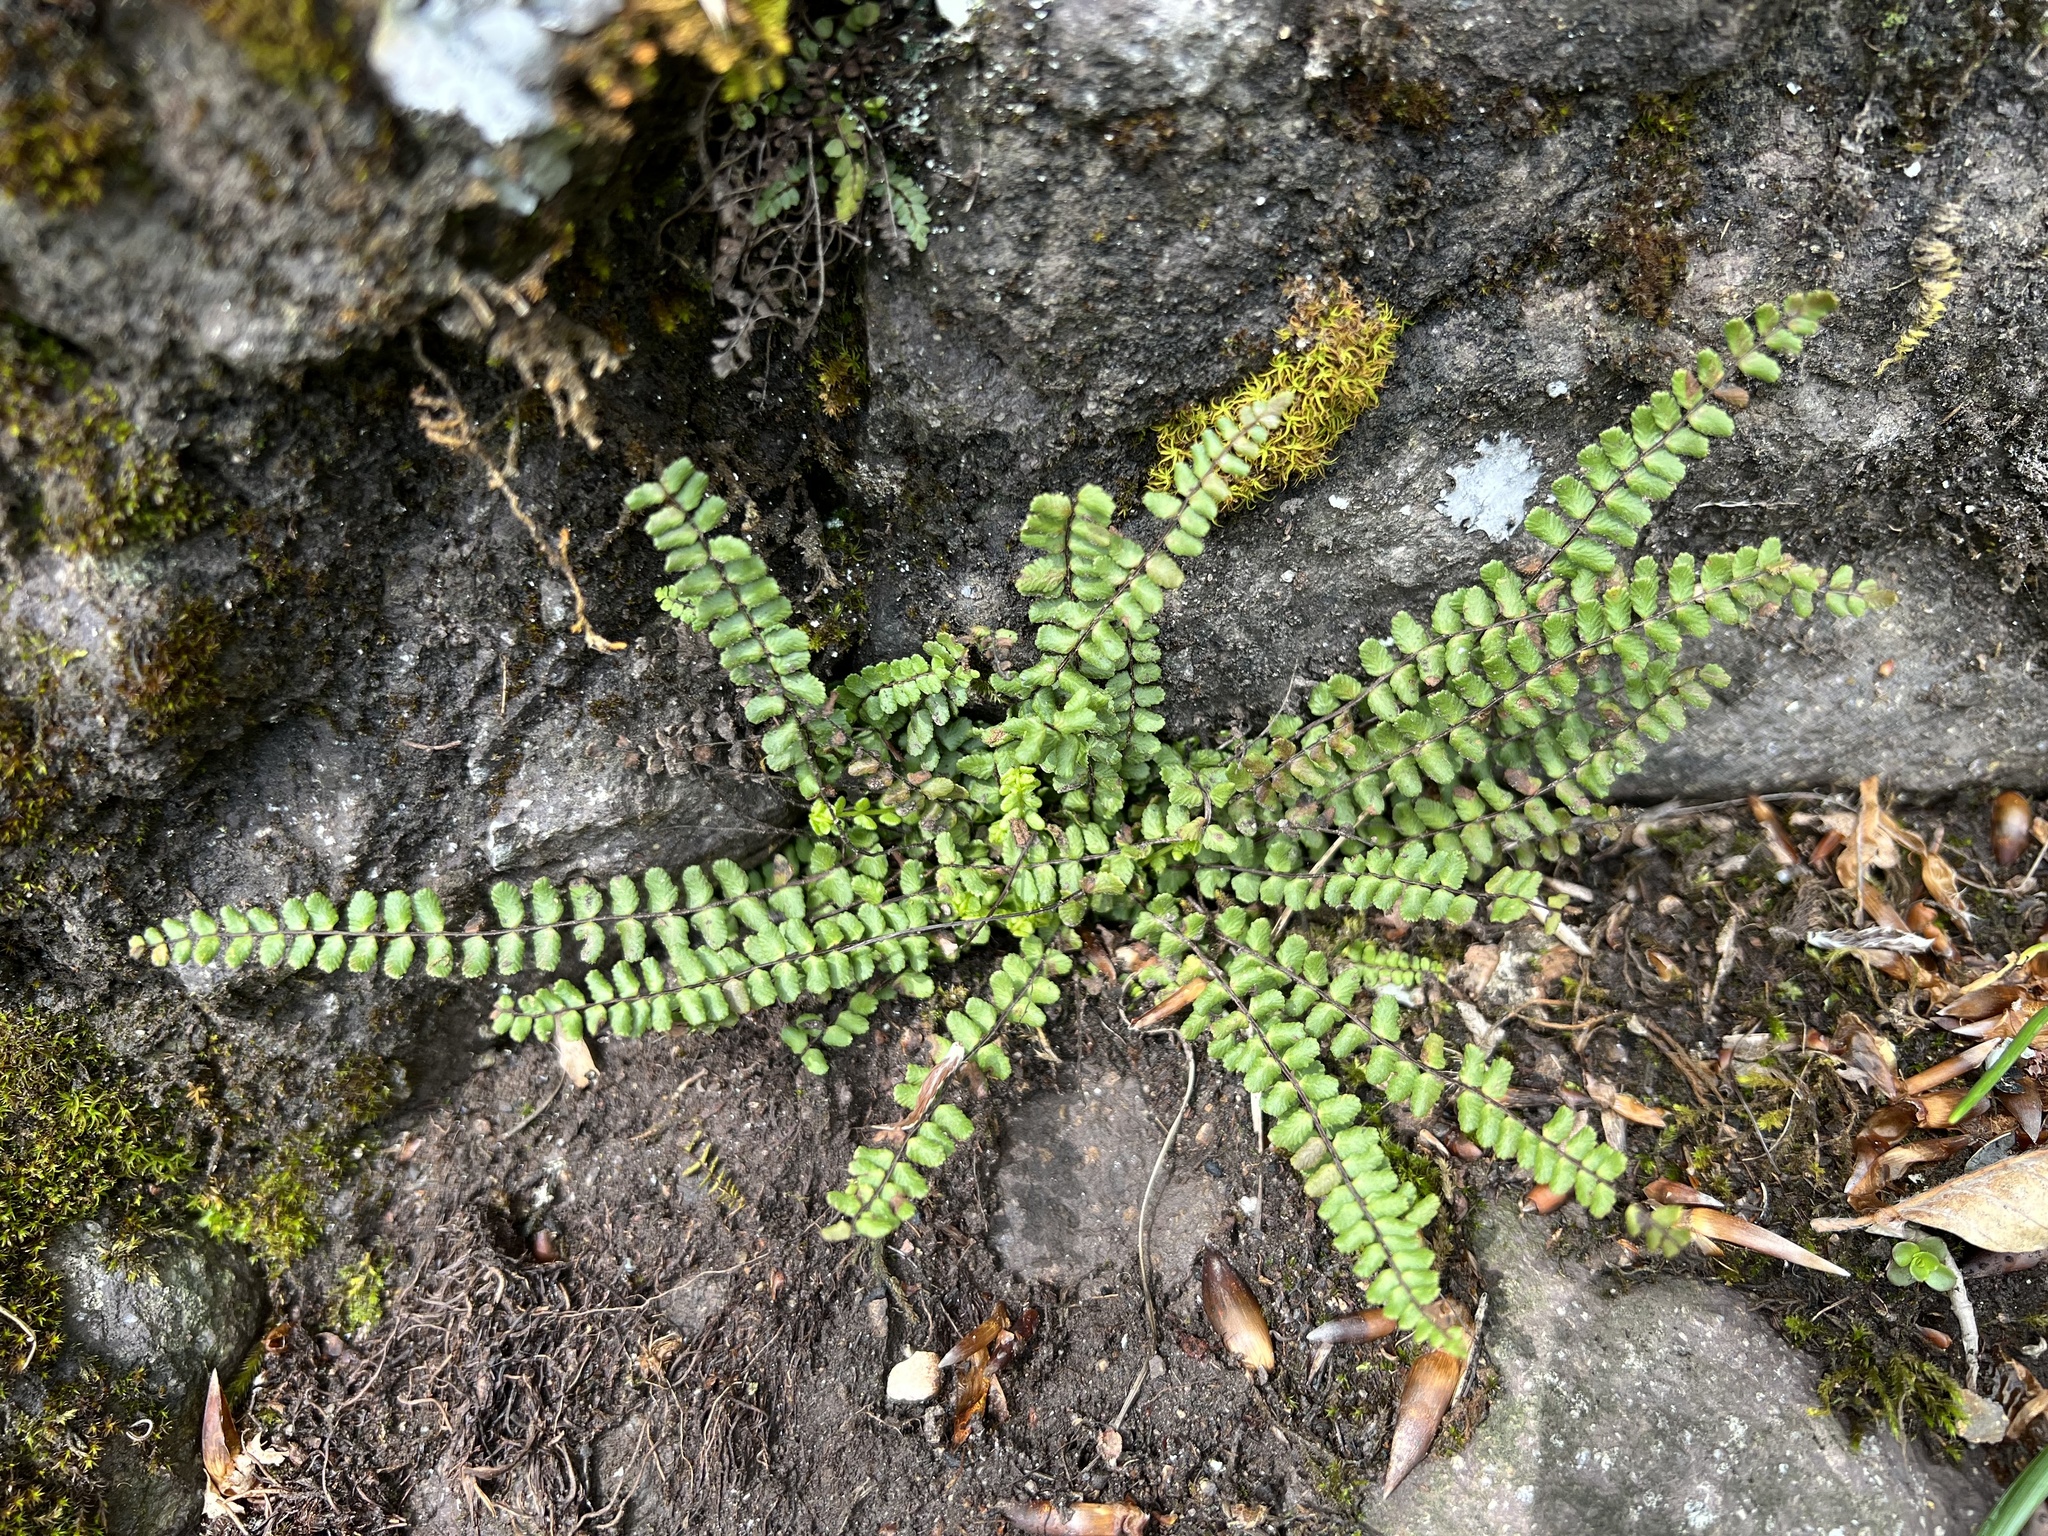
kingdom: Plantae
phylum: Tracheophyta
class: Polypodiopsida
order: Polypodiales
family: Aspleniaceae
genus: Asplenium
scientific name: Asplenium trichomanes
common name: Maidenhair spleenwort
